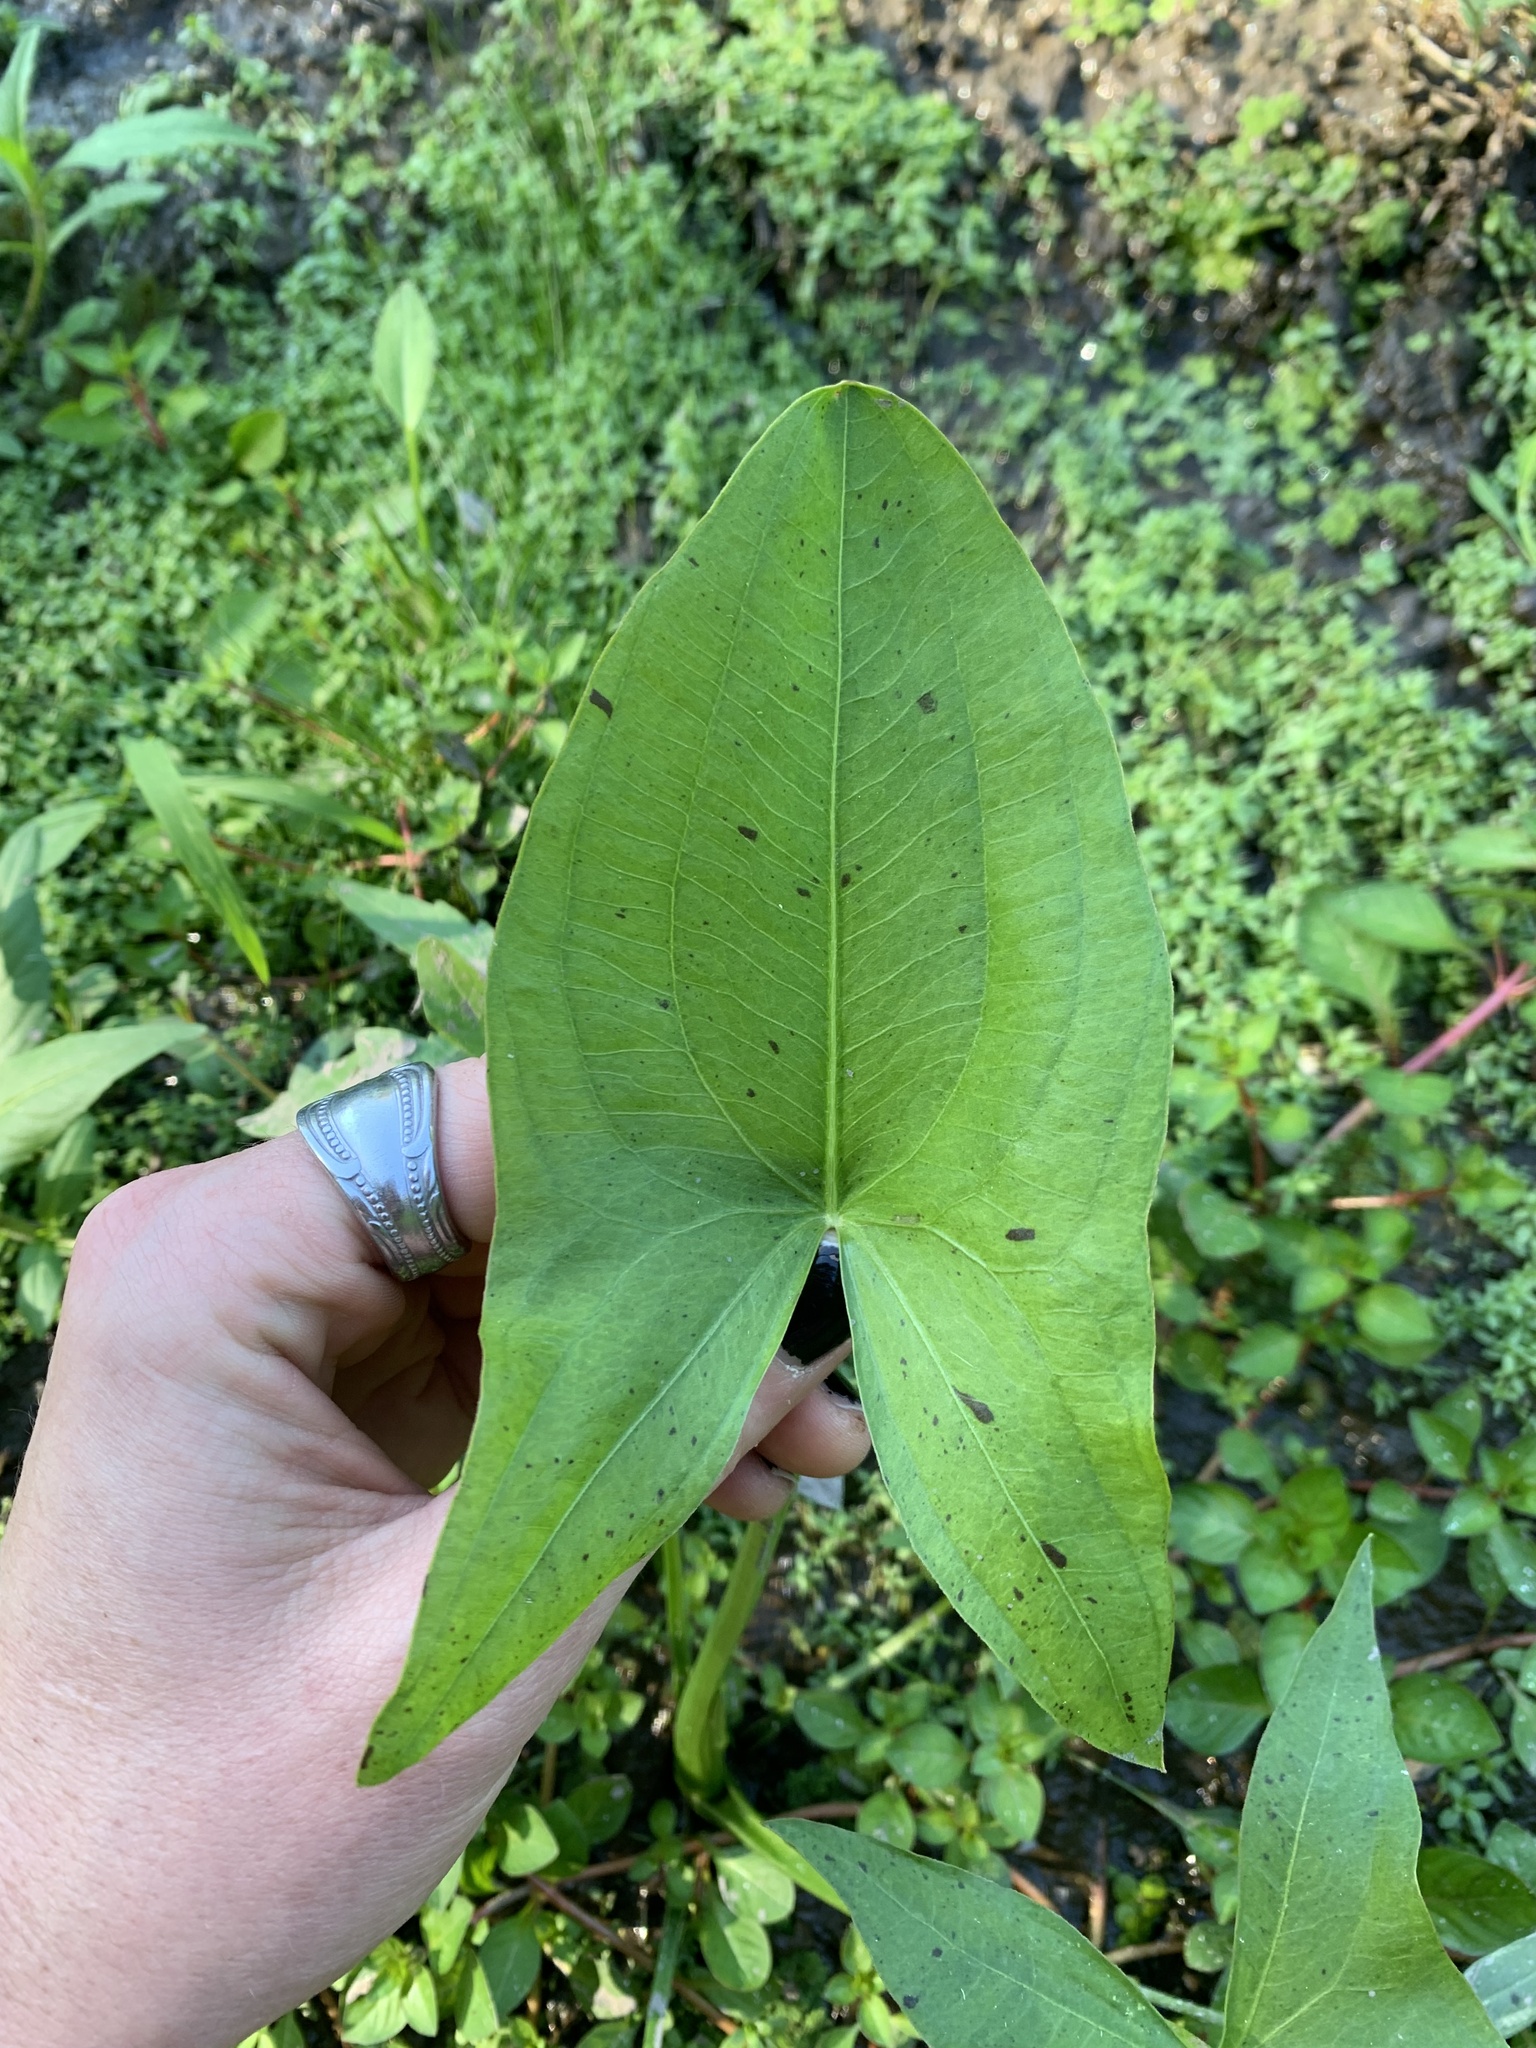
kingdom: Plantae
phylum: Tracheophyta
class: Liliopsida
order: Alismatales
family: Alismataceae
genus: Sagittaria
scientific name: Sagittaria latifolia
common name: Duck-potato
